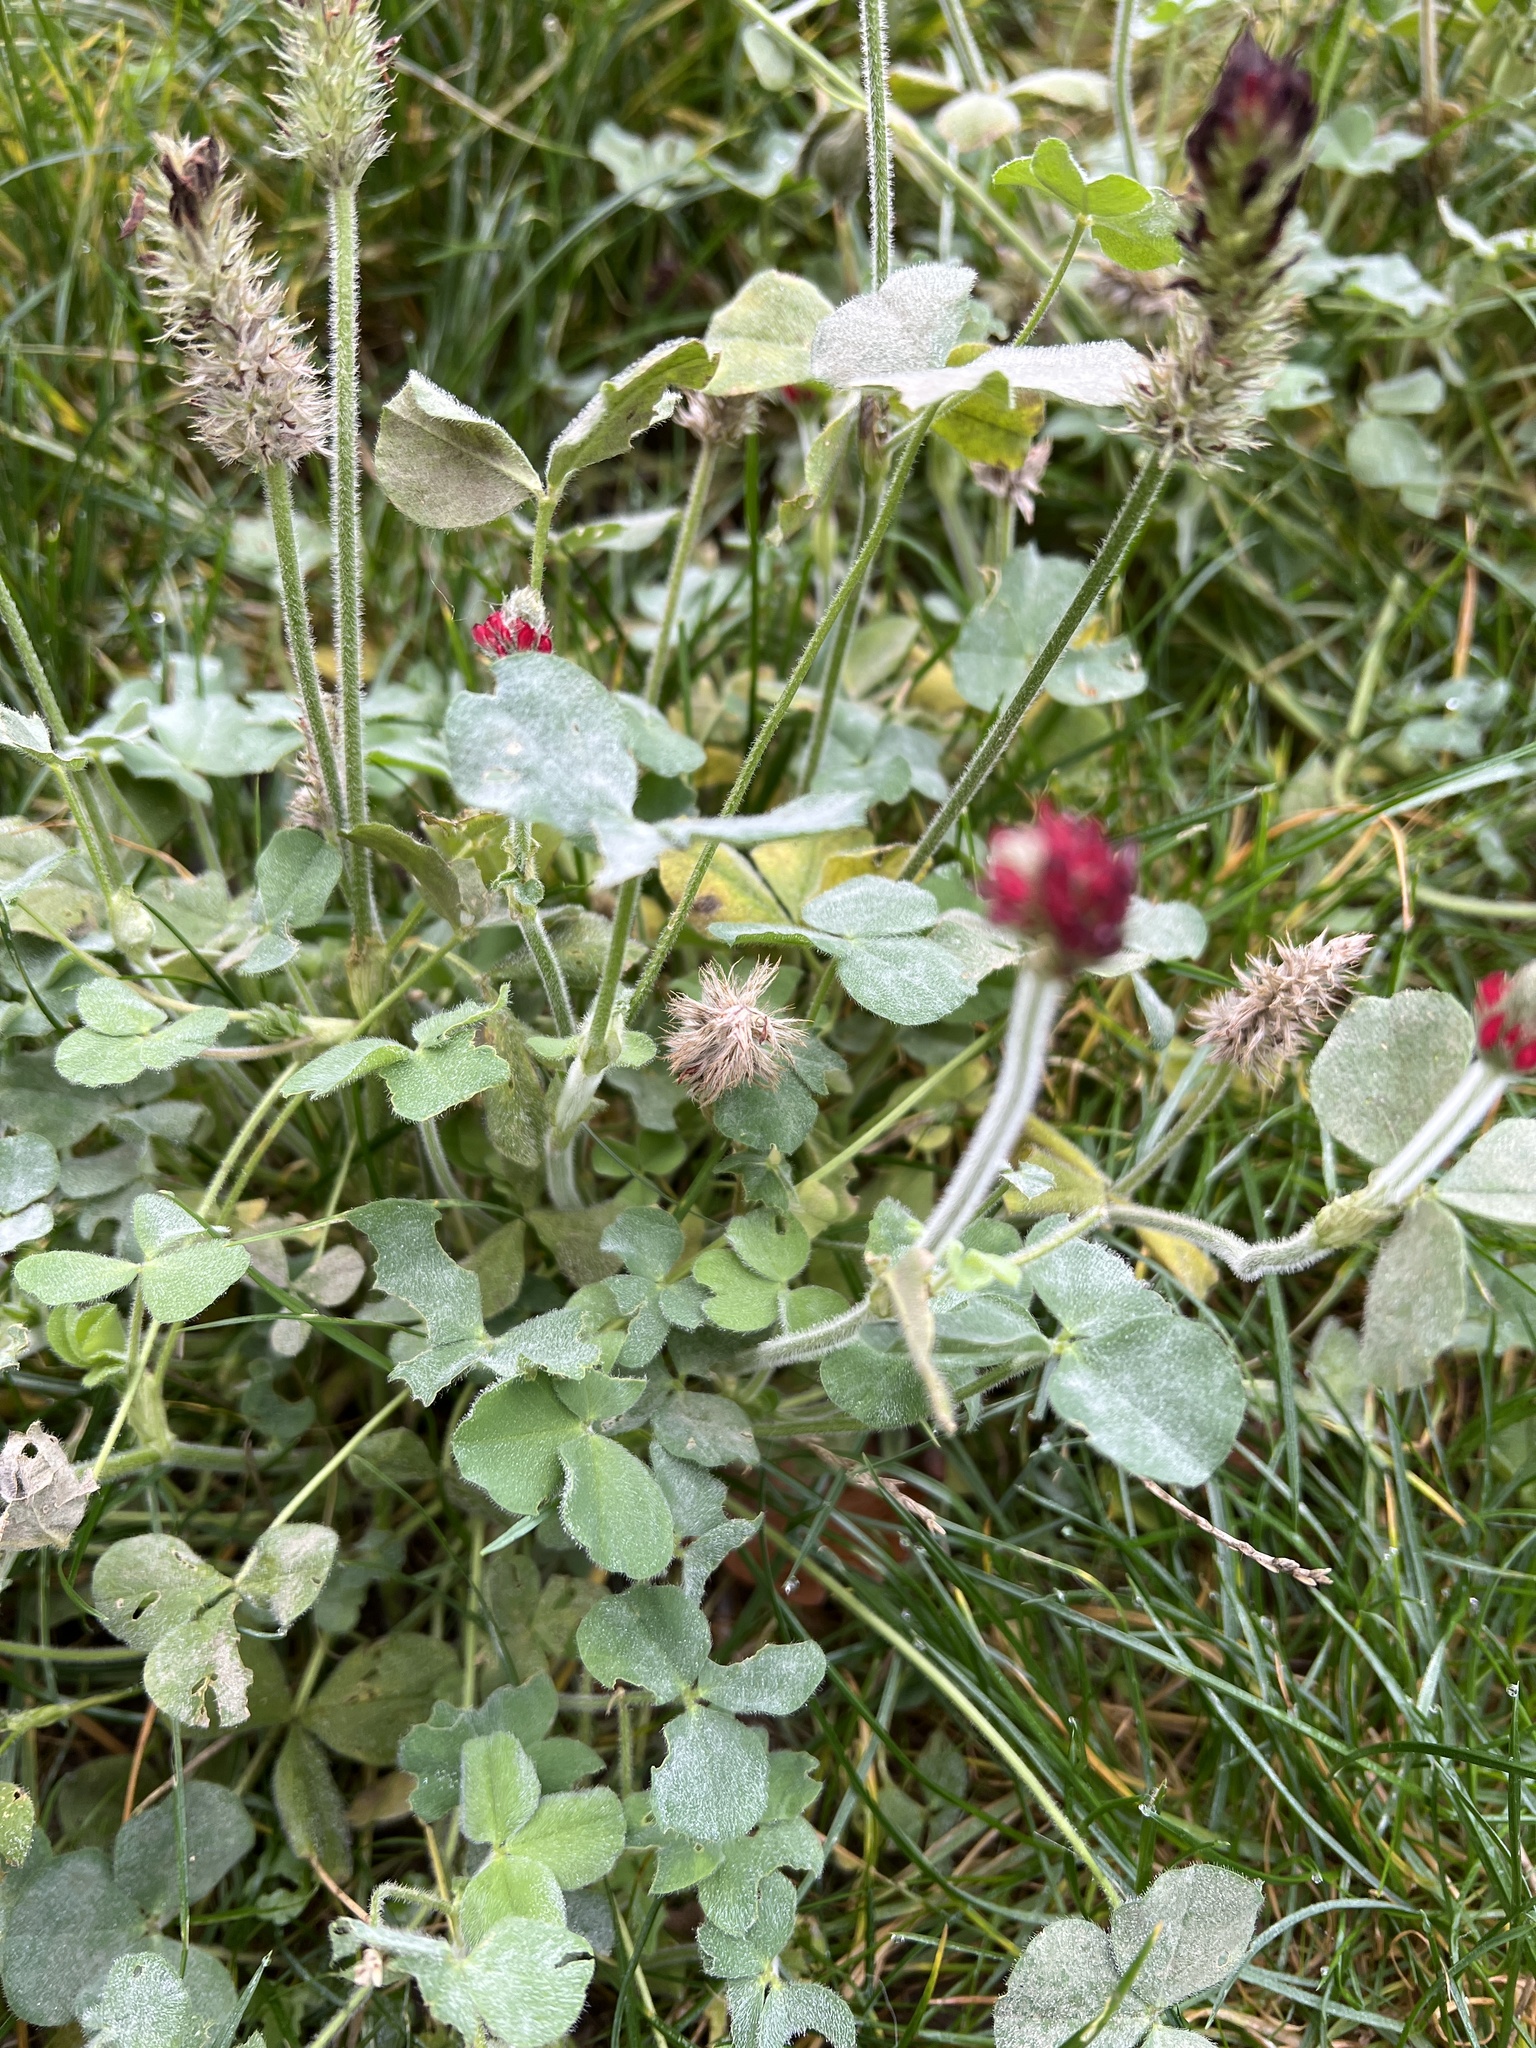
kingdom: Plantae
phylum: Tracheophyta
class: Magnoliopsida
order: Fabales
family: Fabaceae
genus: Trifolium
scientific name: Trifolium incarnatum
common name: Crimson clover
